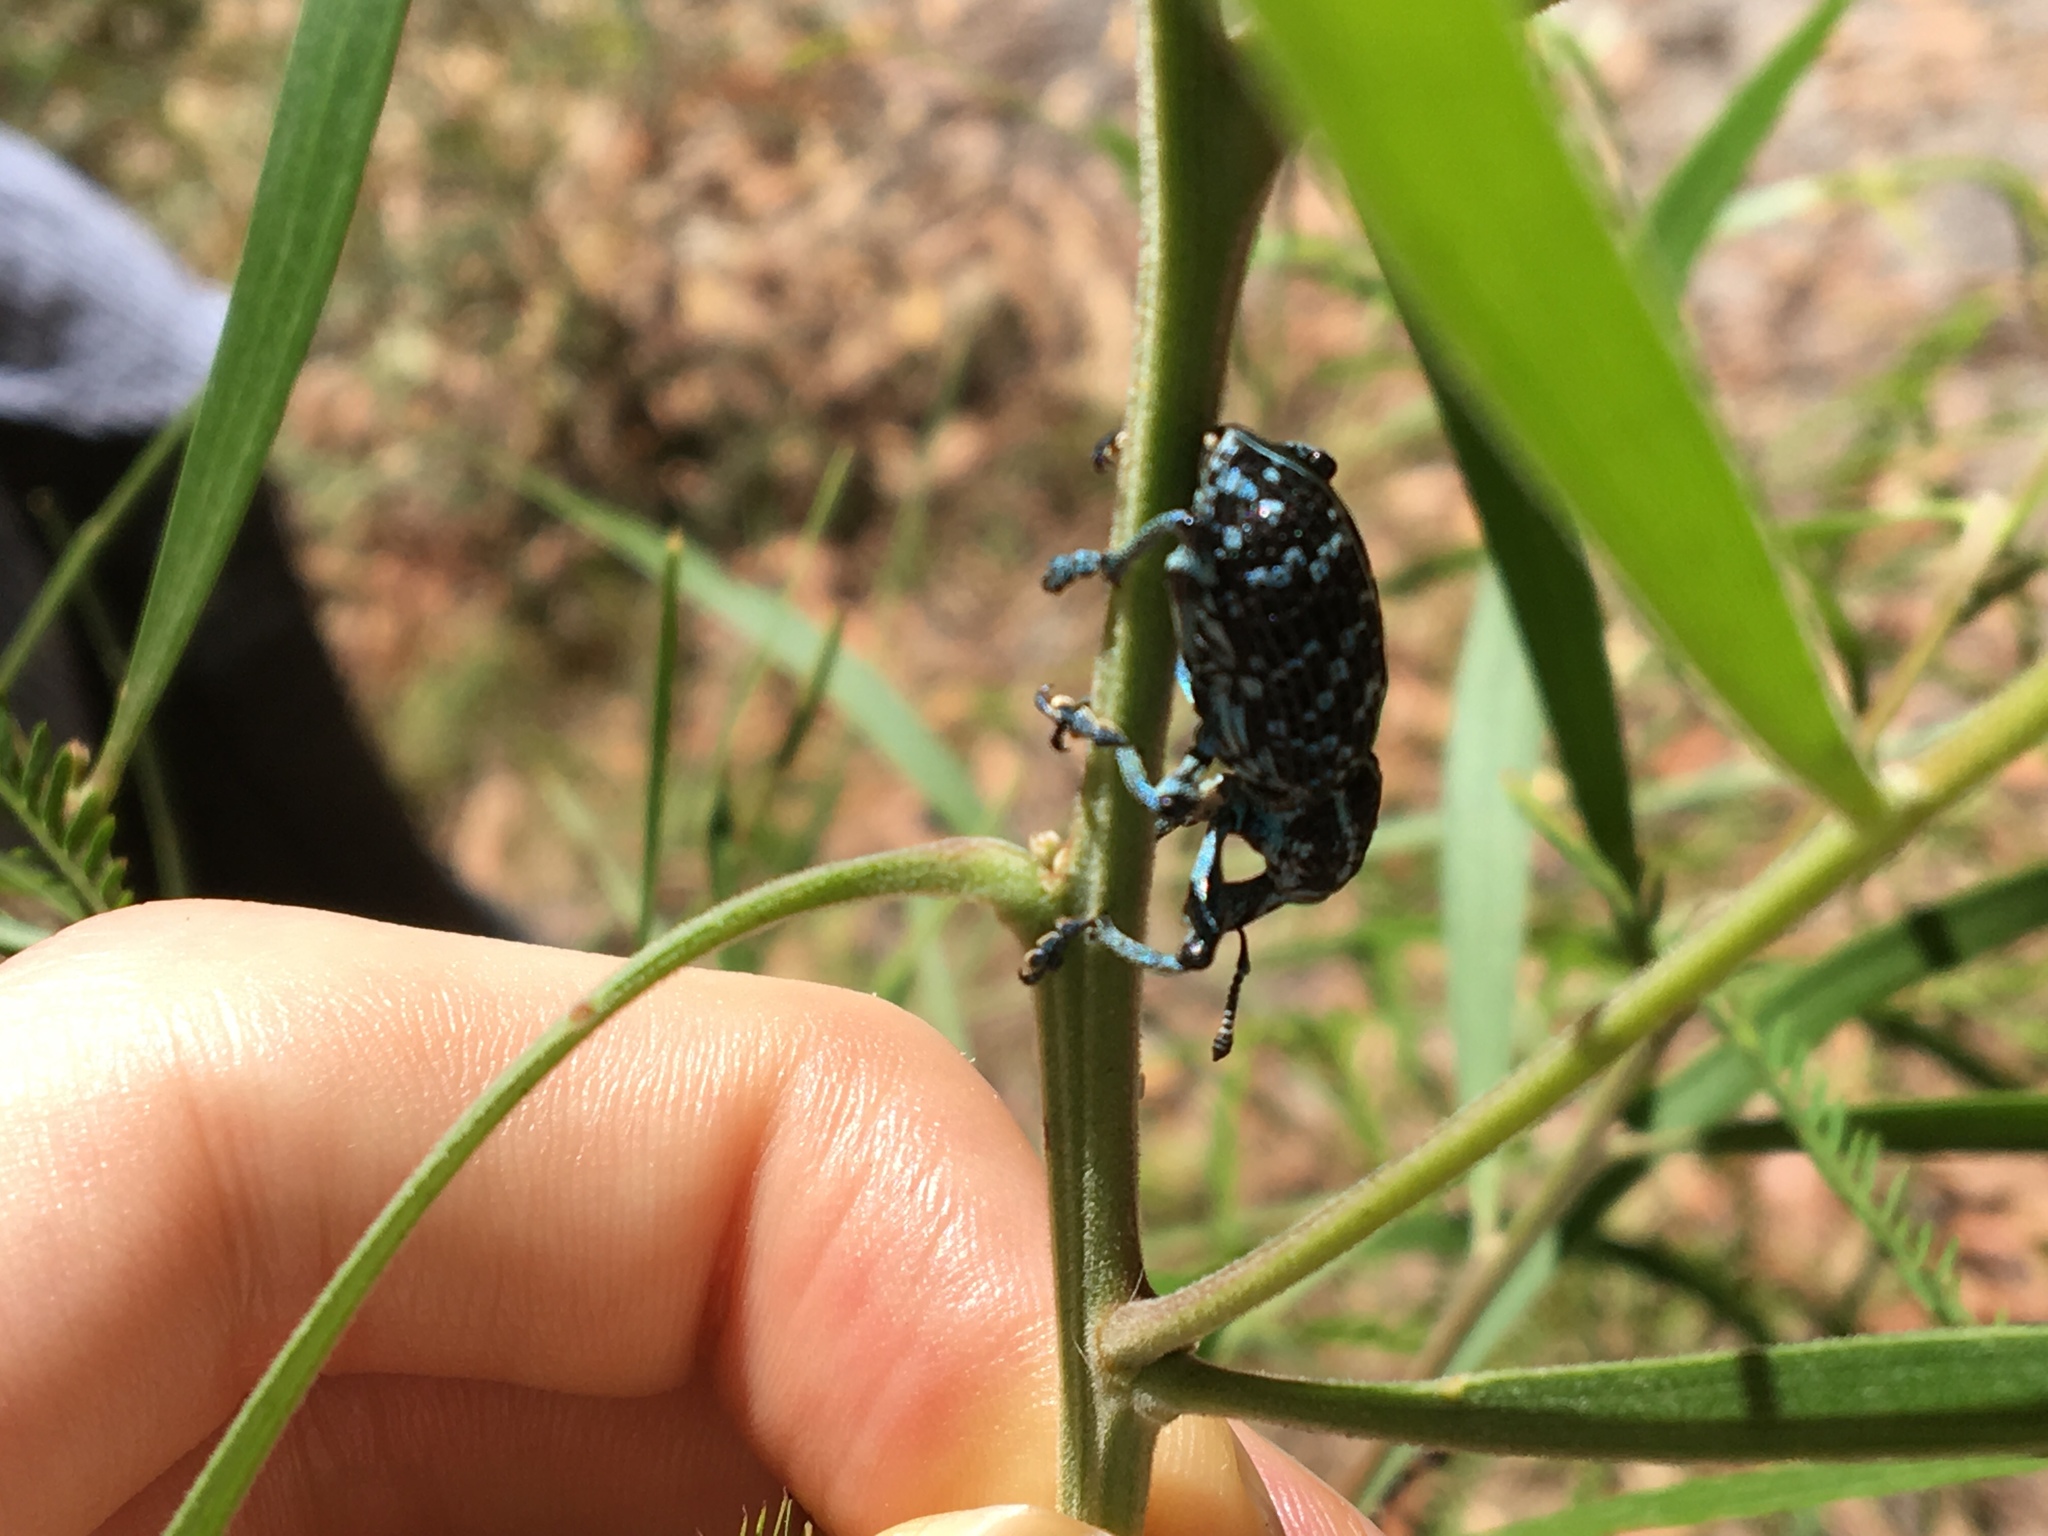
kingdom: Animalia
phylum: Arthropoda
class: Insecta
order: Coleoptera
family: Curculionidae
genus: Chrysolopus
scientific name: Chrysolopus spectabilis
